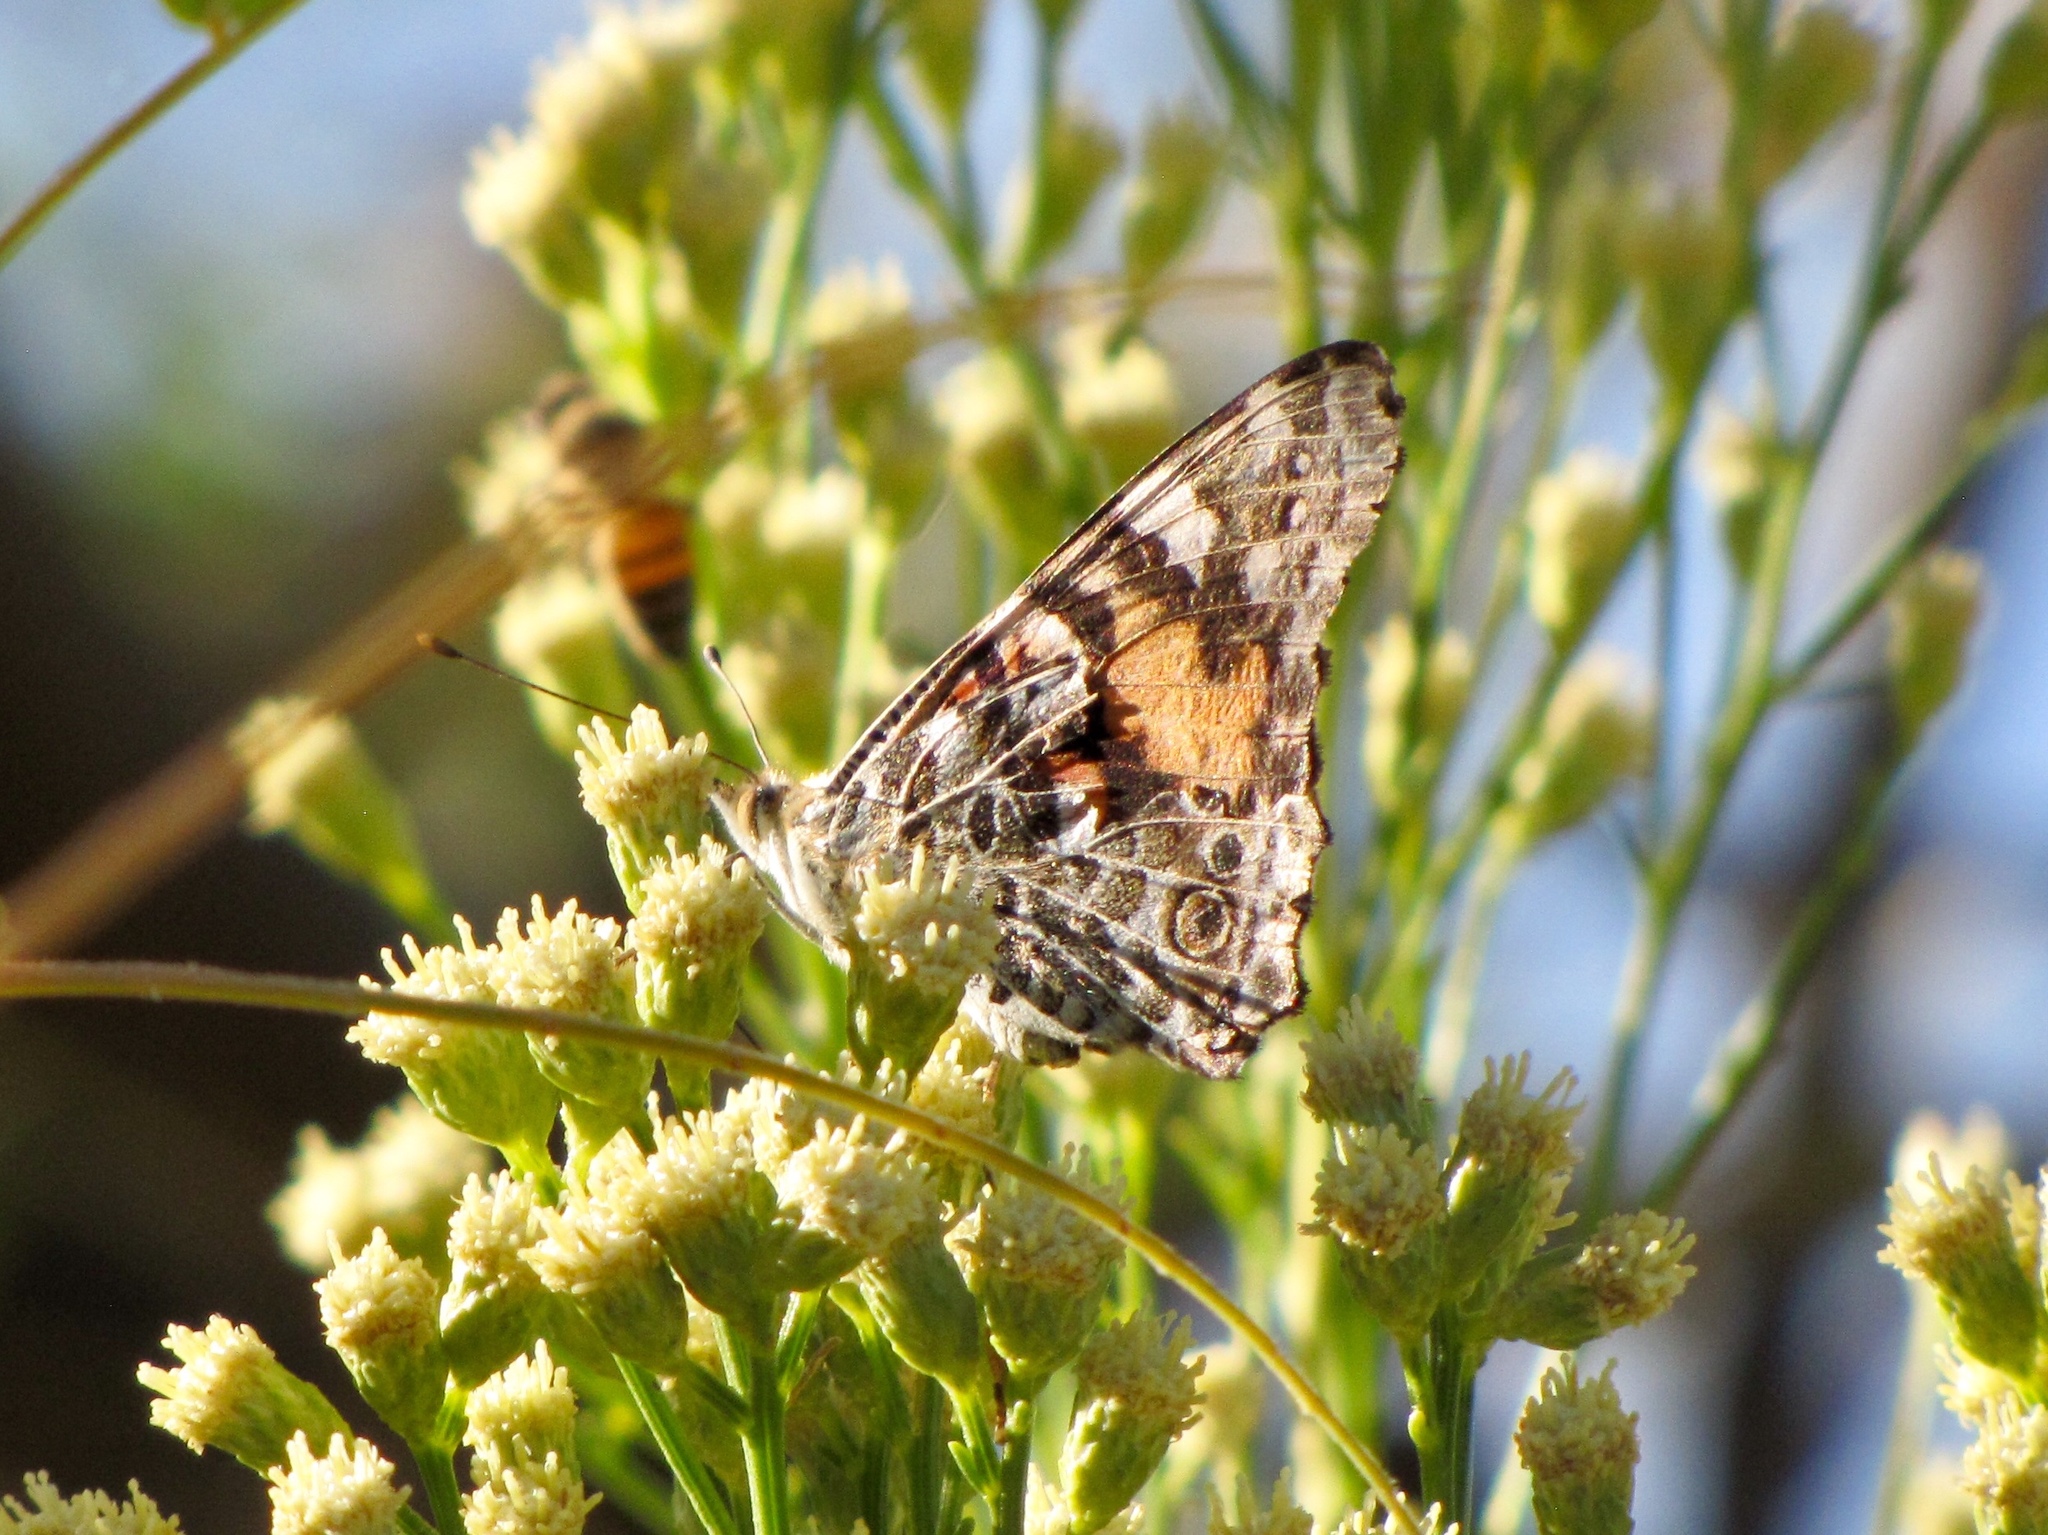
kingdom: Animalia
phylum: Arthropoda
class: Insecta
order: Lepidoptera
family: Nymphalidae
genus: Vanessa
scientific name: Vanessa cardui
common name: Painted lady
